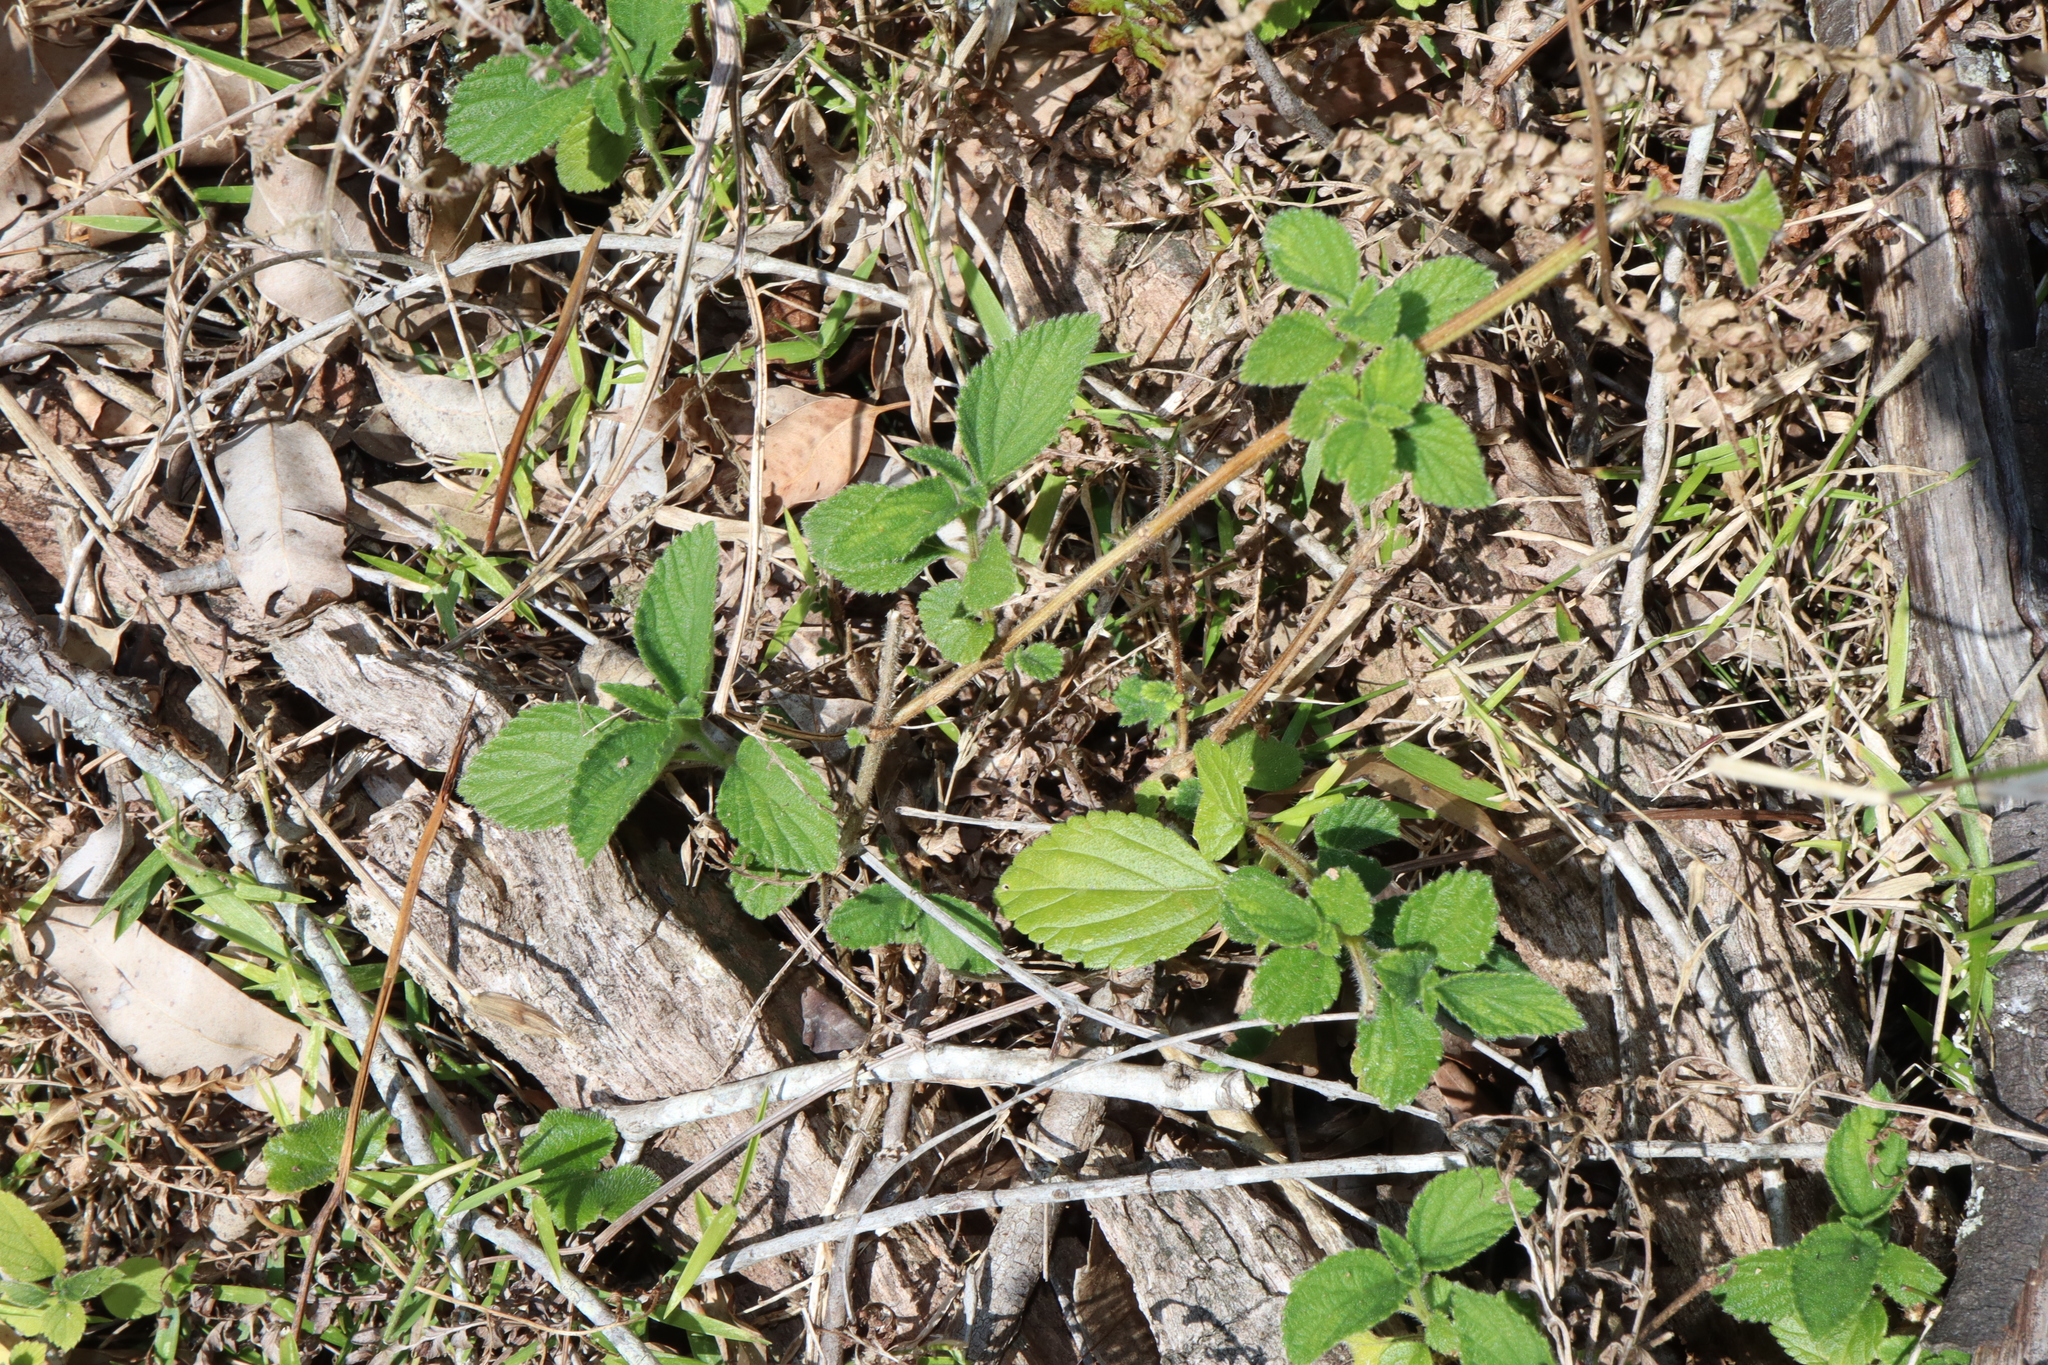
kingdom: Plantae
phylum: Tracheophyta
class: Magnoliopsida
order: Malvales
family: Malvaceae
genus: Sida
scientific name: Sida rhombifolia
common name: Queensland-hemp
